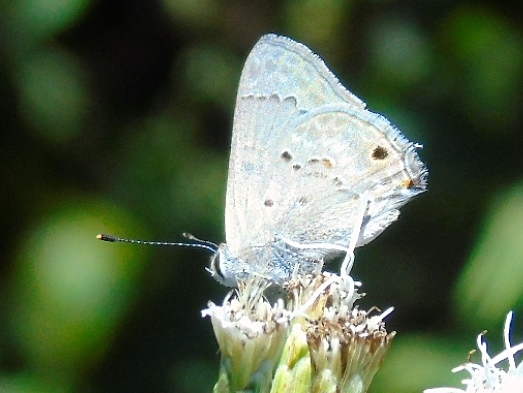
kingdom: Animalia
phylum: Arthropoda
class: Insecta
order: Lepidoptera
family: Lycaenidae
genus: Callicista
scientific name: Callicista columella
